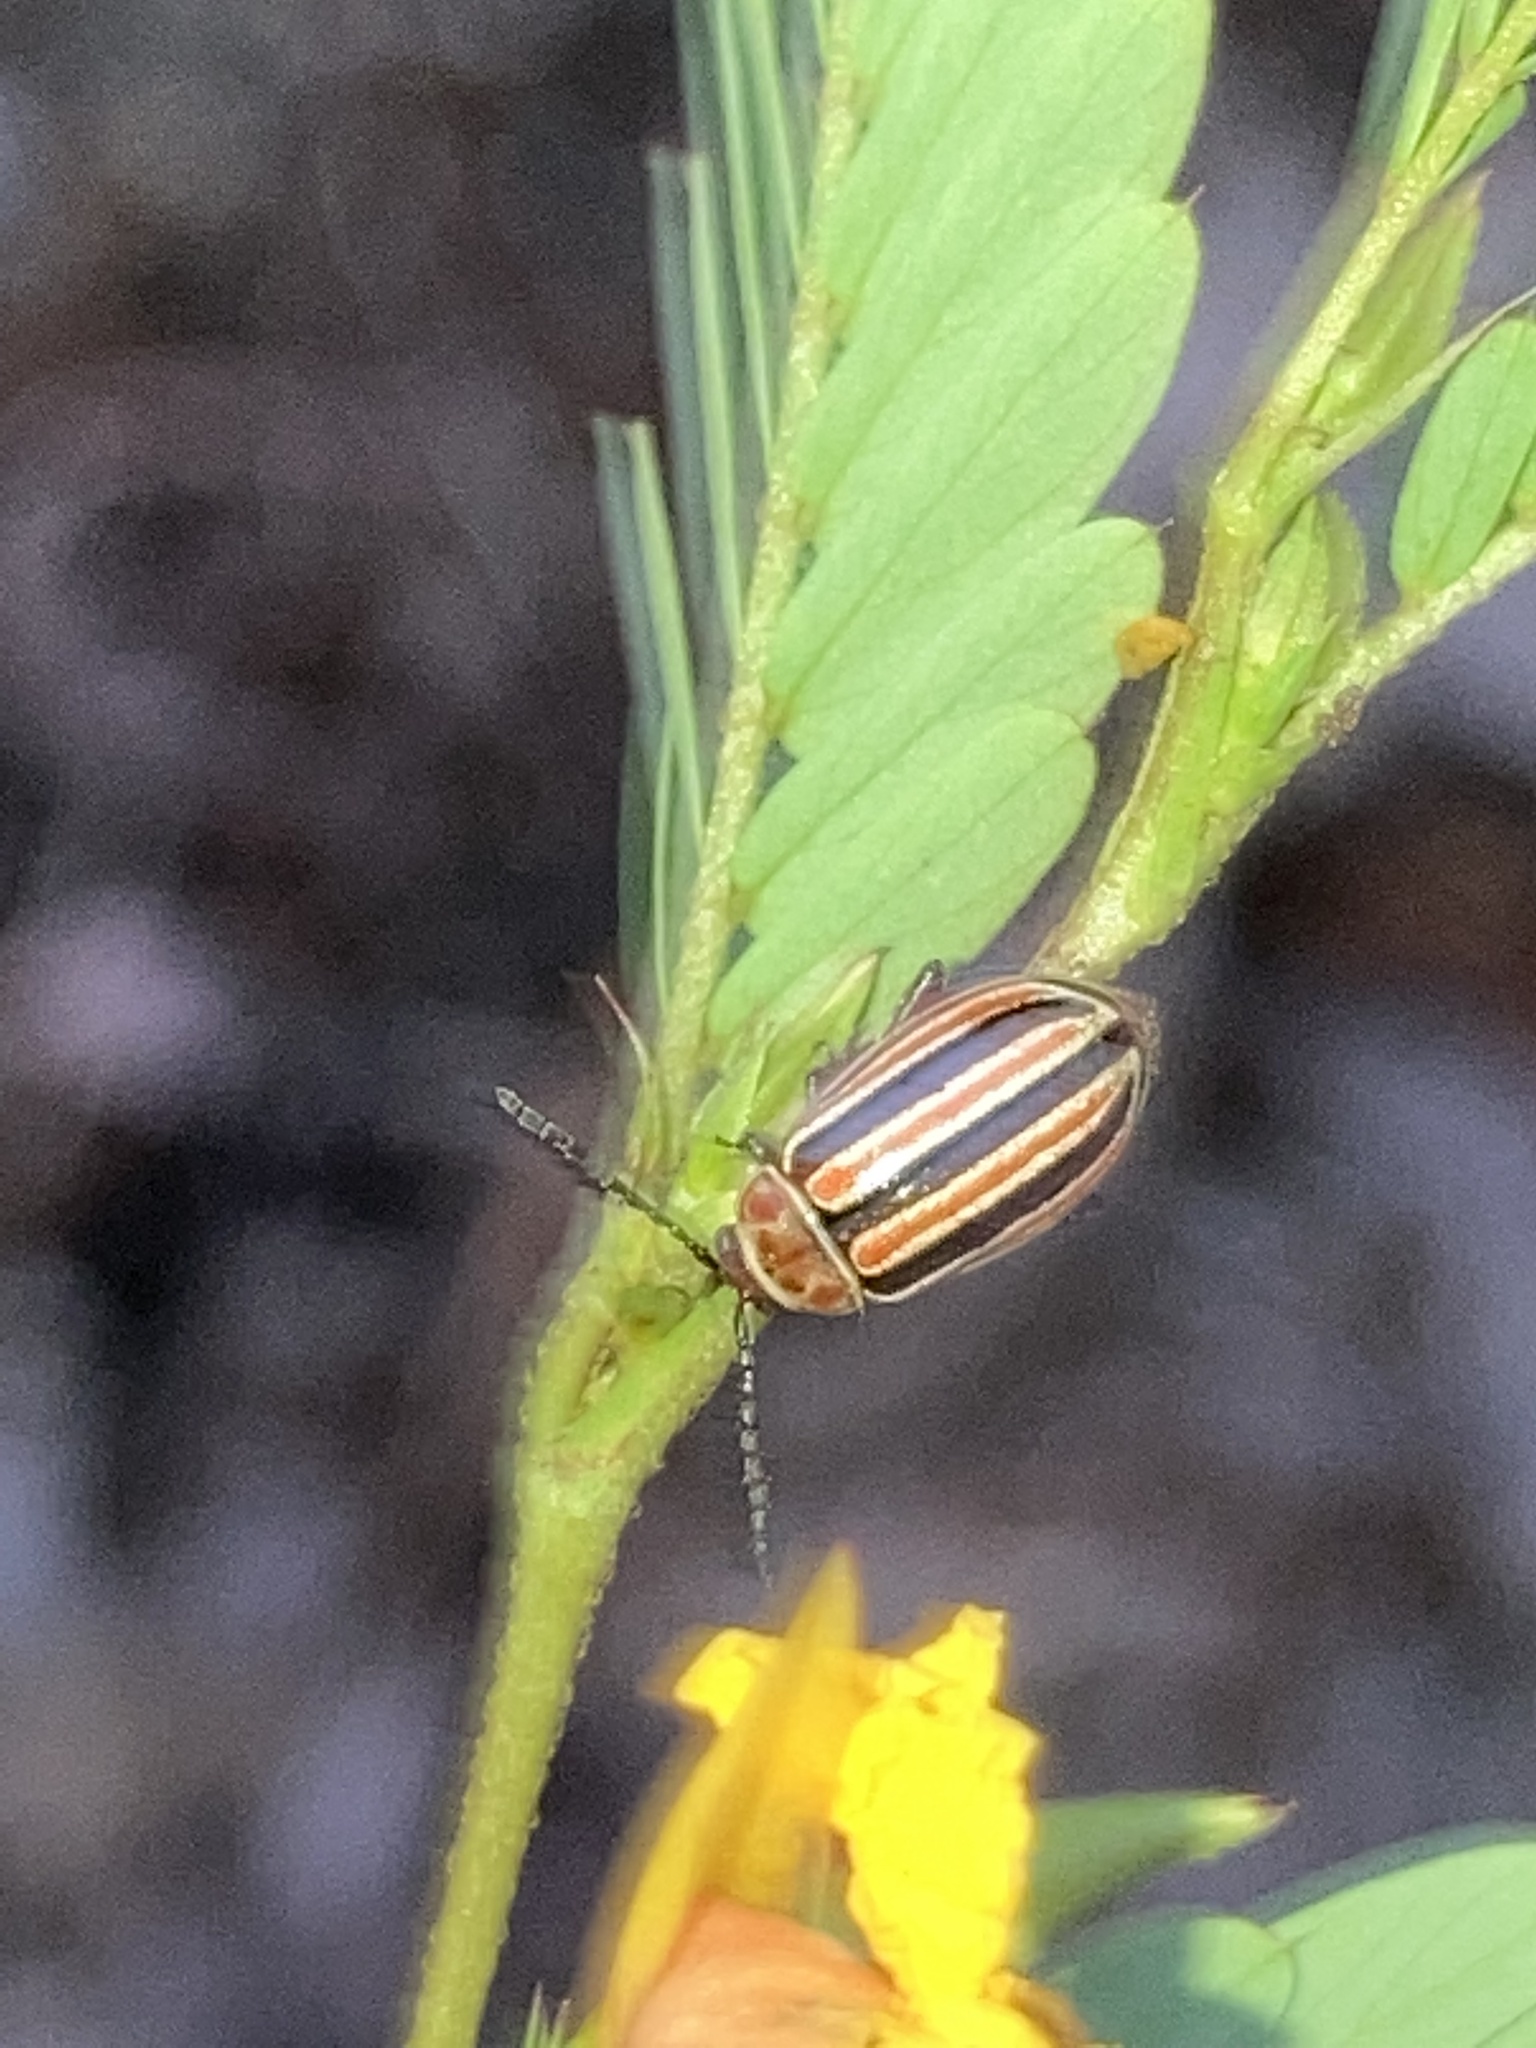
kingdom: Animalia
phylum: Arthropoda
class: Insecta
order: Coleoptera
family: Chrysomelidae
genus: Kuschelina
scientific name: Kuschelina miniata
